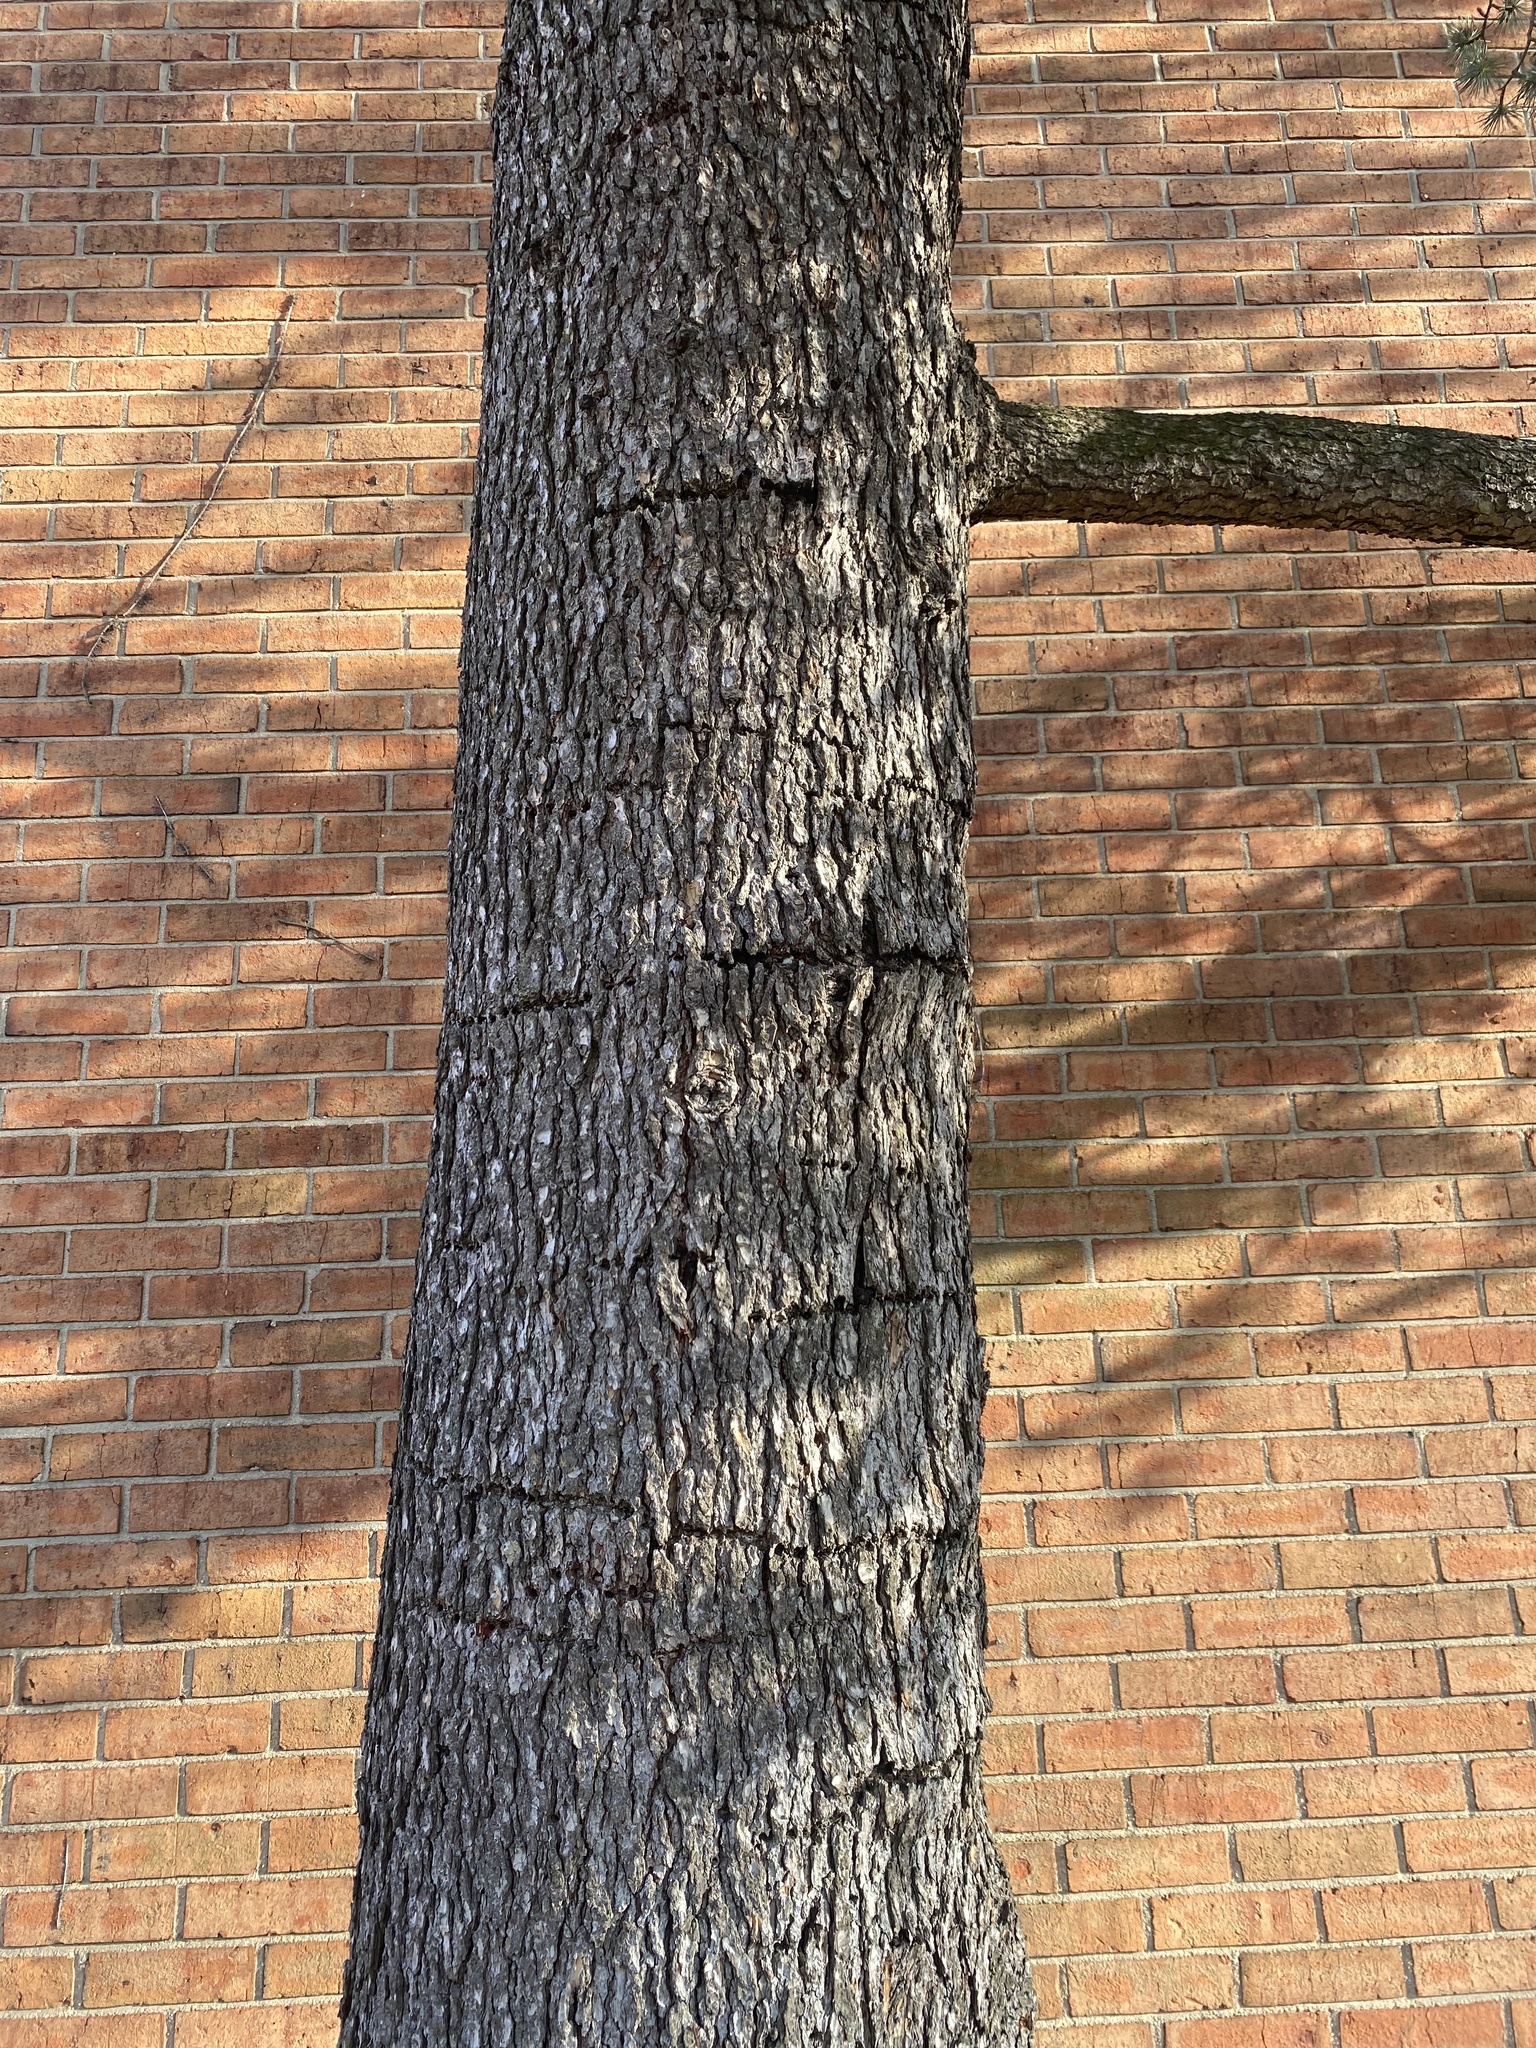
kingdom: Animalia
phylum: Chordata
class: Aves
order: Piciformes
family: Picidae
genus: Sphyrapicus
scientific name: Sphyrapicus varius
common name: Yellow-bellied sapsucker
